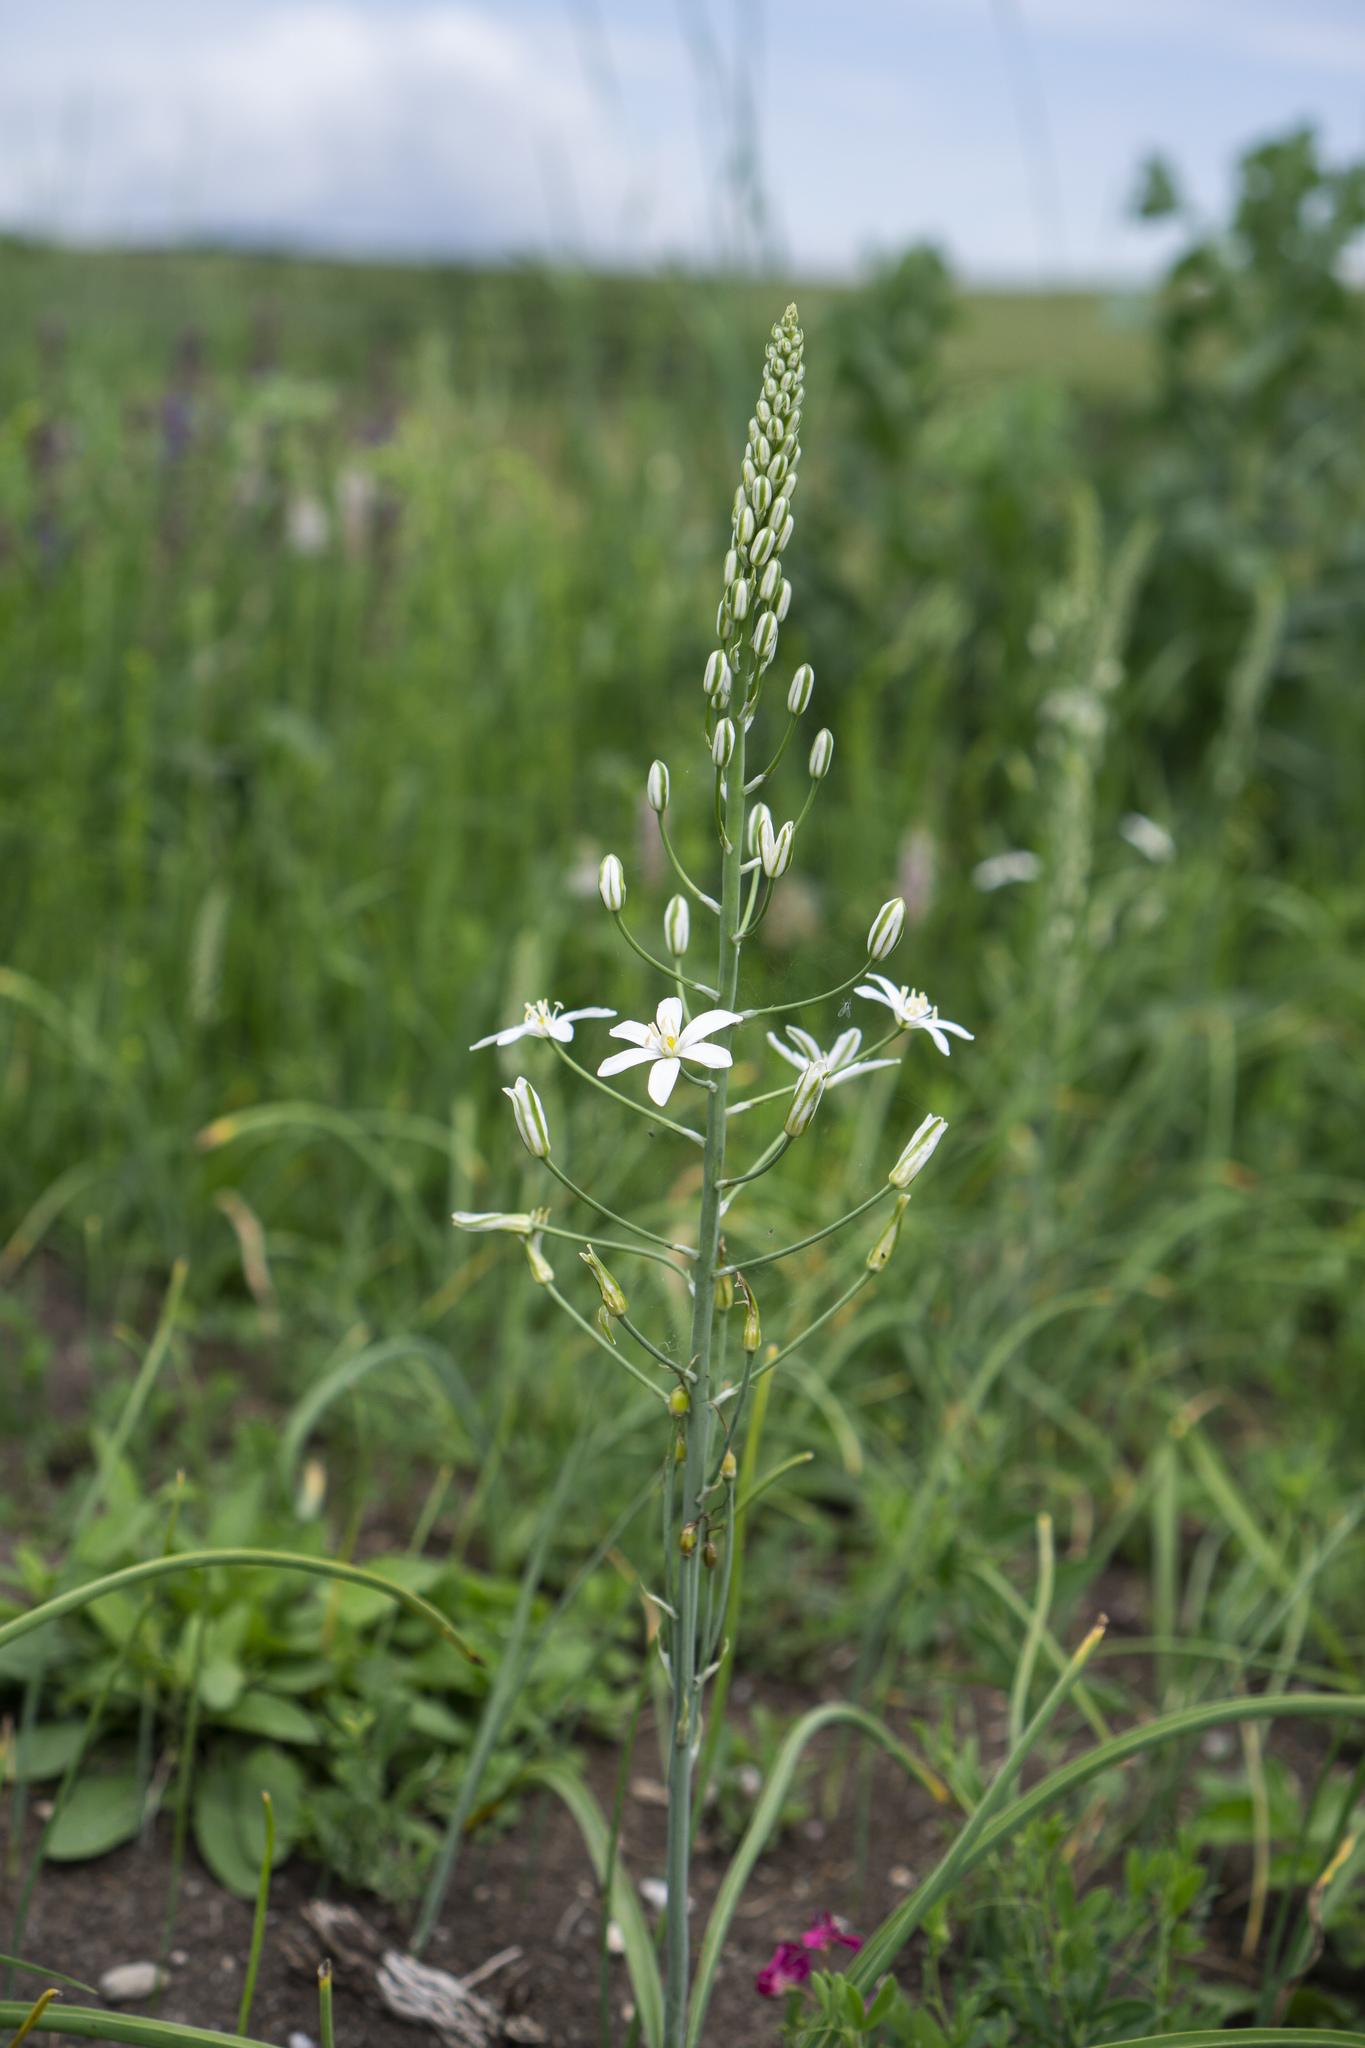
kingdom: Plantae
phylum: Tracheophyta
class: Liliopsida
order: Asparagales
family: Asparagaceae
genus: Ornithogalum
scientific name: Ornithogalum pyramidale
